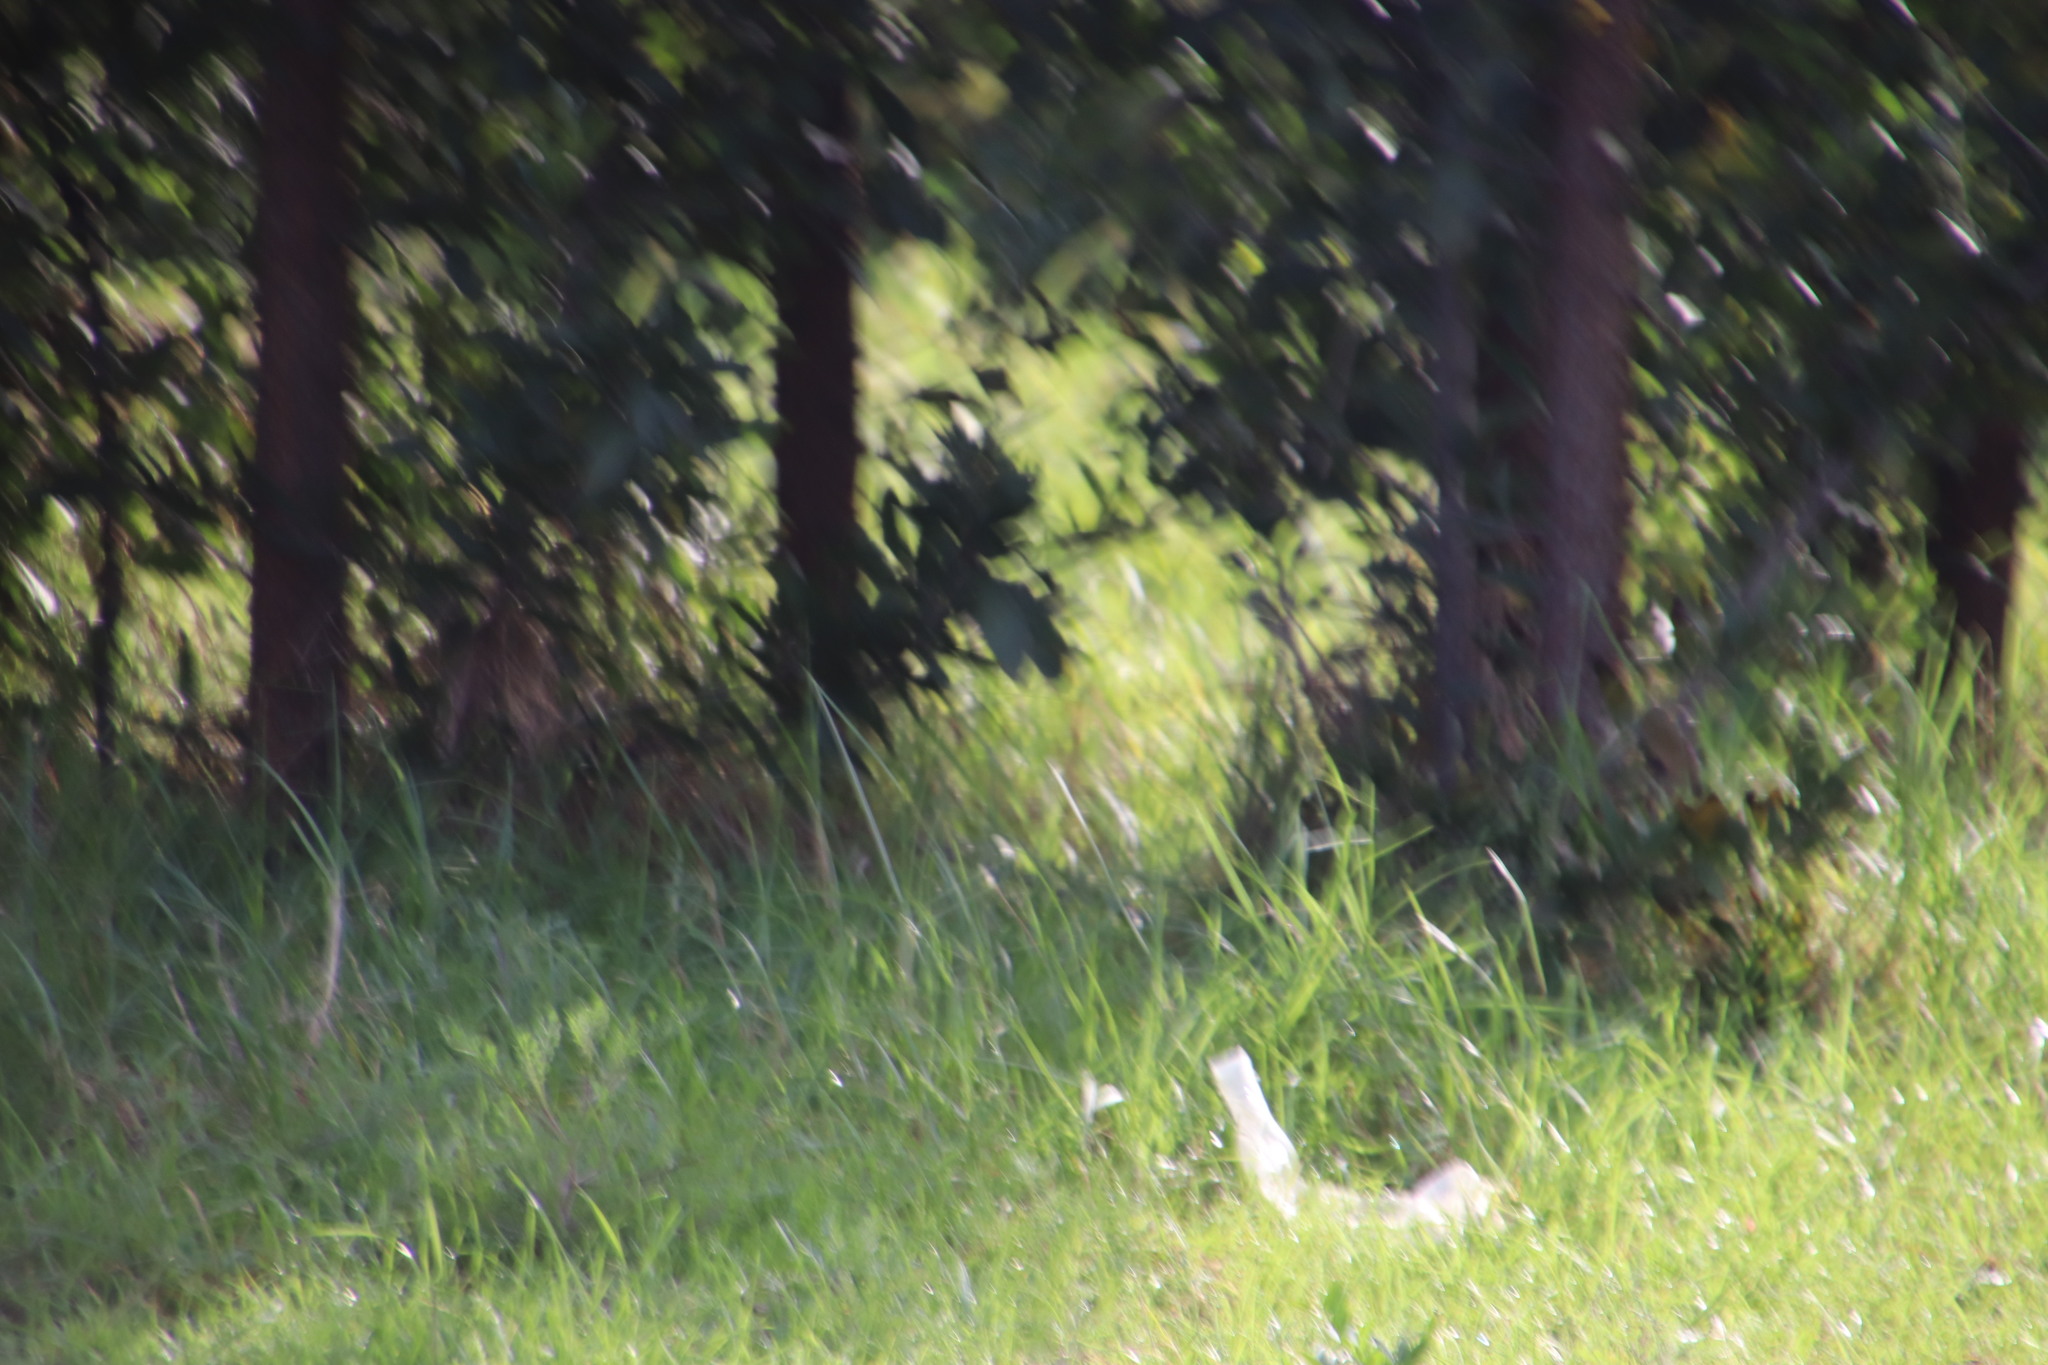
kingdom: Animalia
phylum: Chordata
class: Aves
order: Caprimulgiformes
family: Caprimulgidae
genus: Caprimulgus
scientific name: Caprimulgus pectoralis
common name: Fiery-necked nightjar
